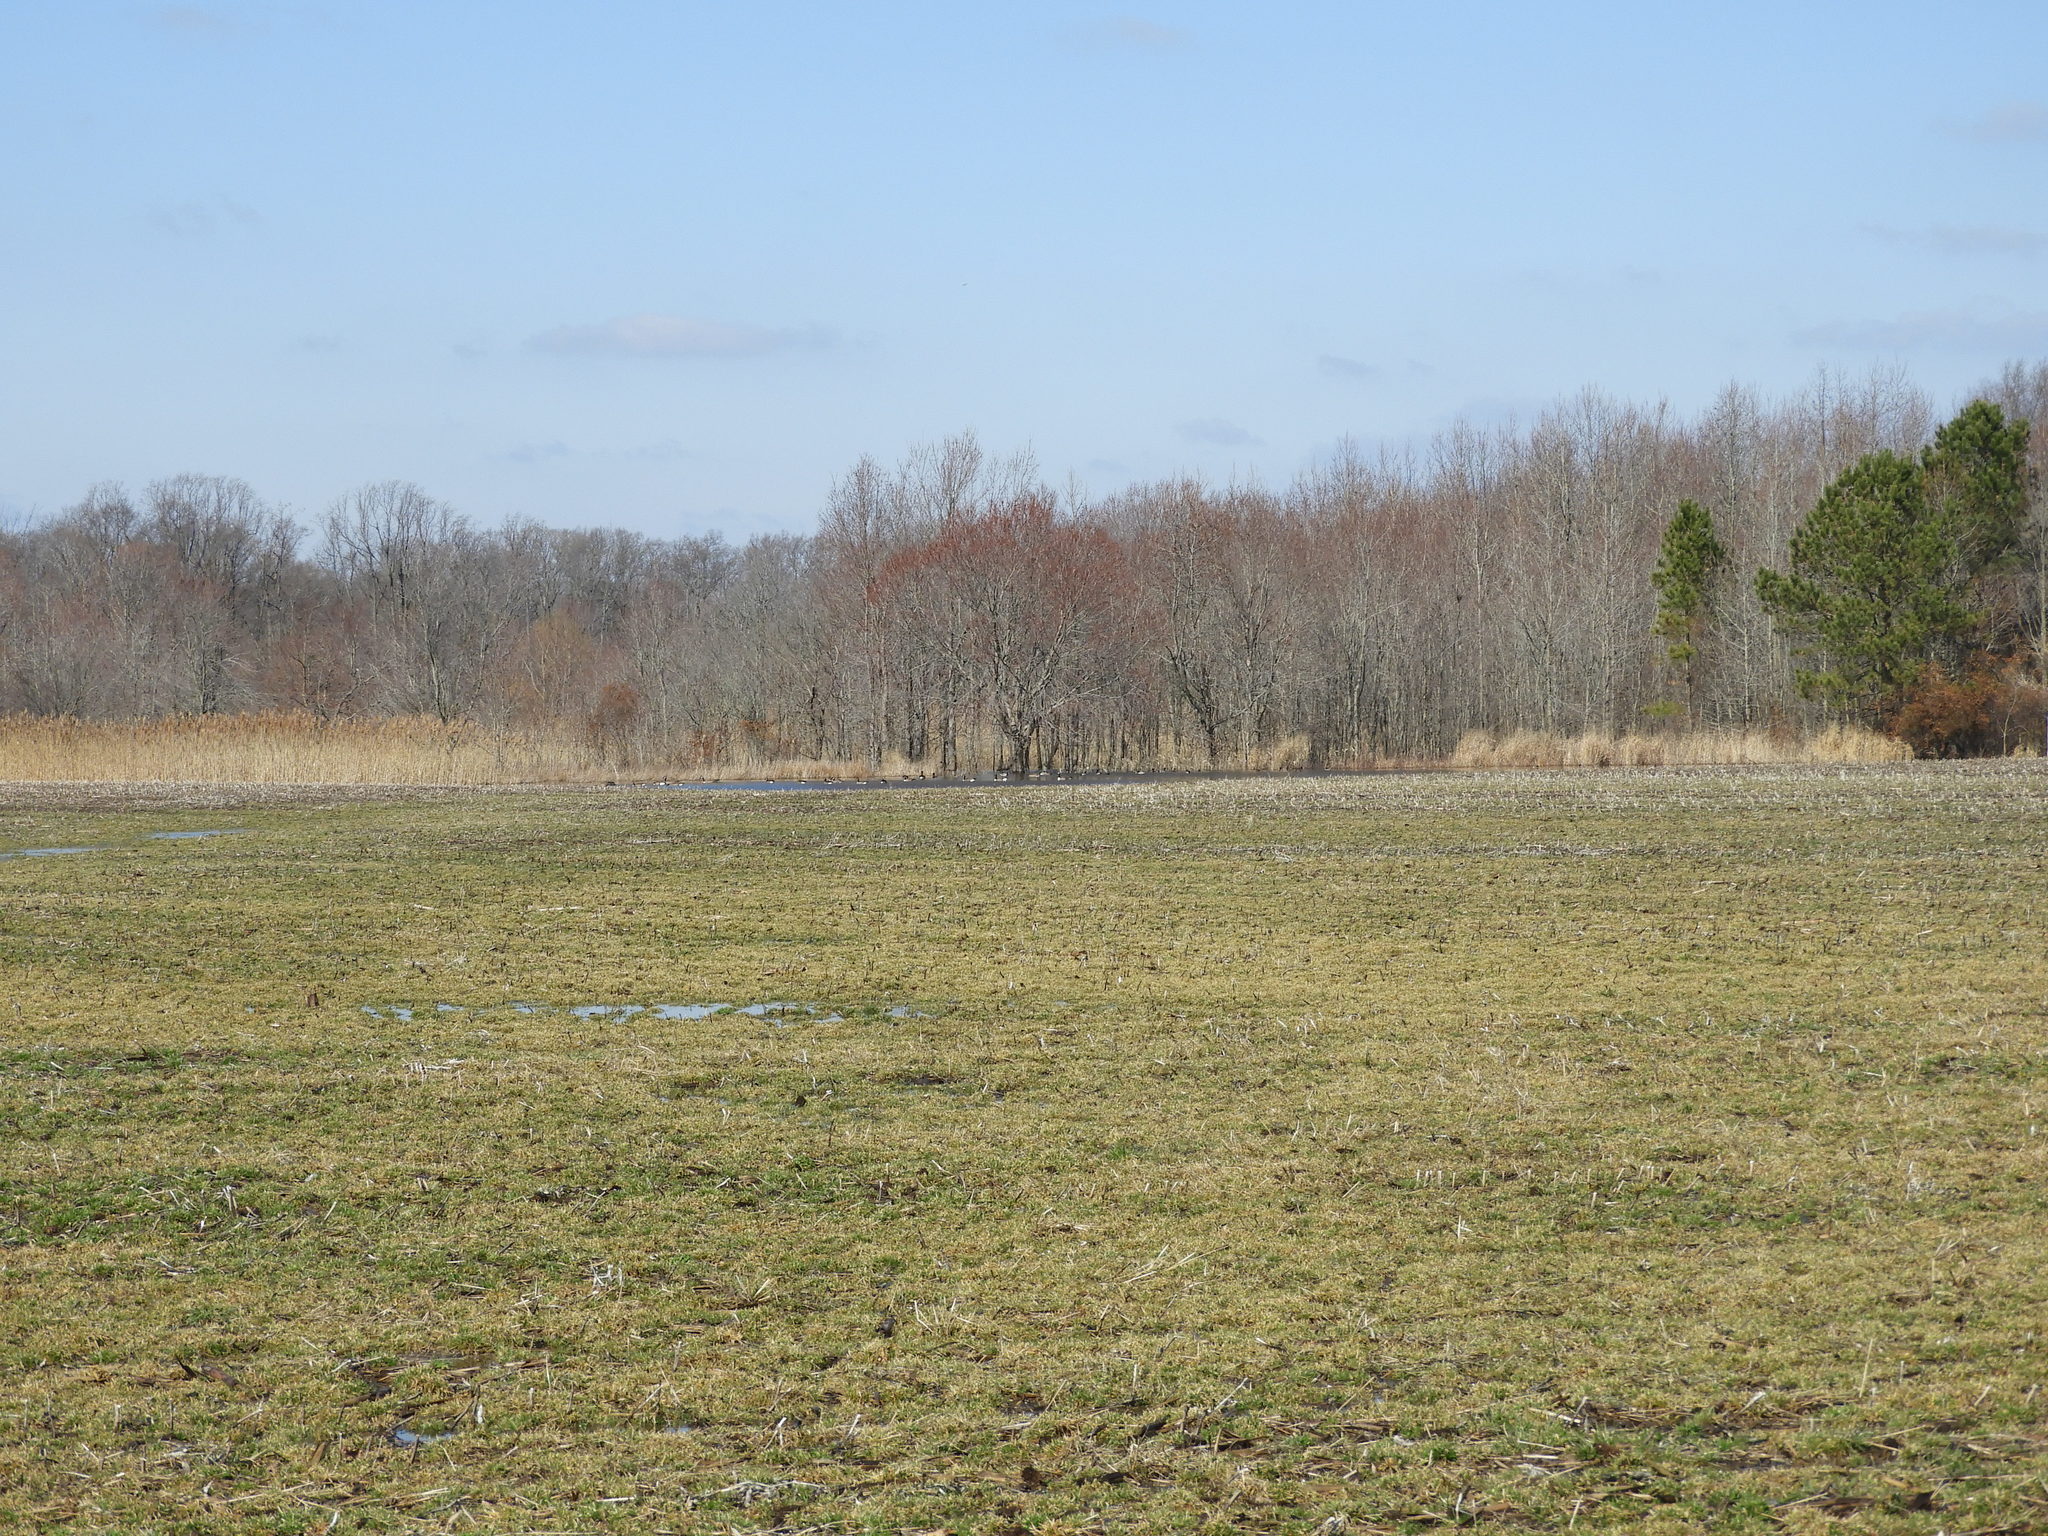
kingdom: Animalia
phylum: Chordata
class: Aves
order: Anseriformes
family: Anatidae
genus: Anas
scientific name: Anas crecca
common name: Eurasian teal
